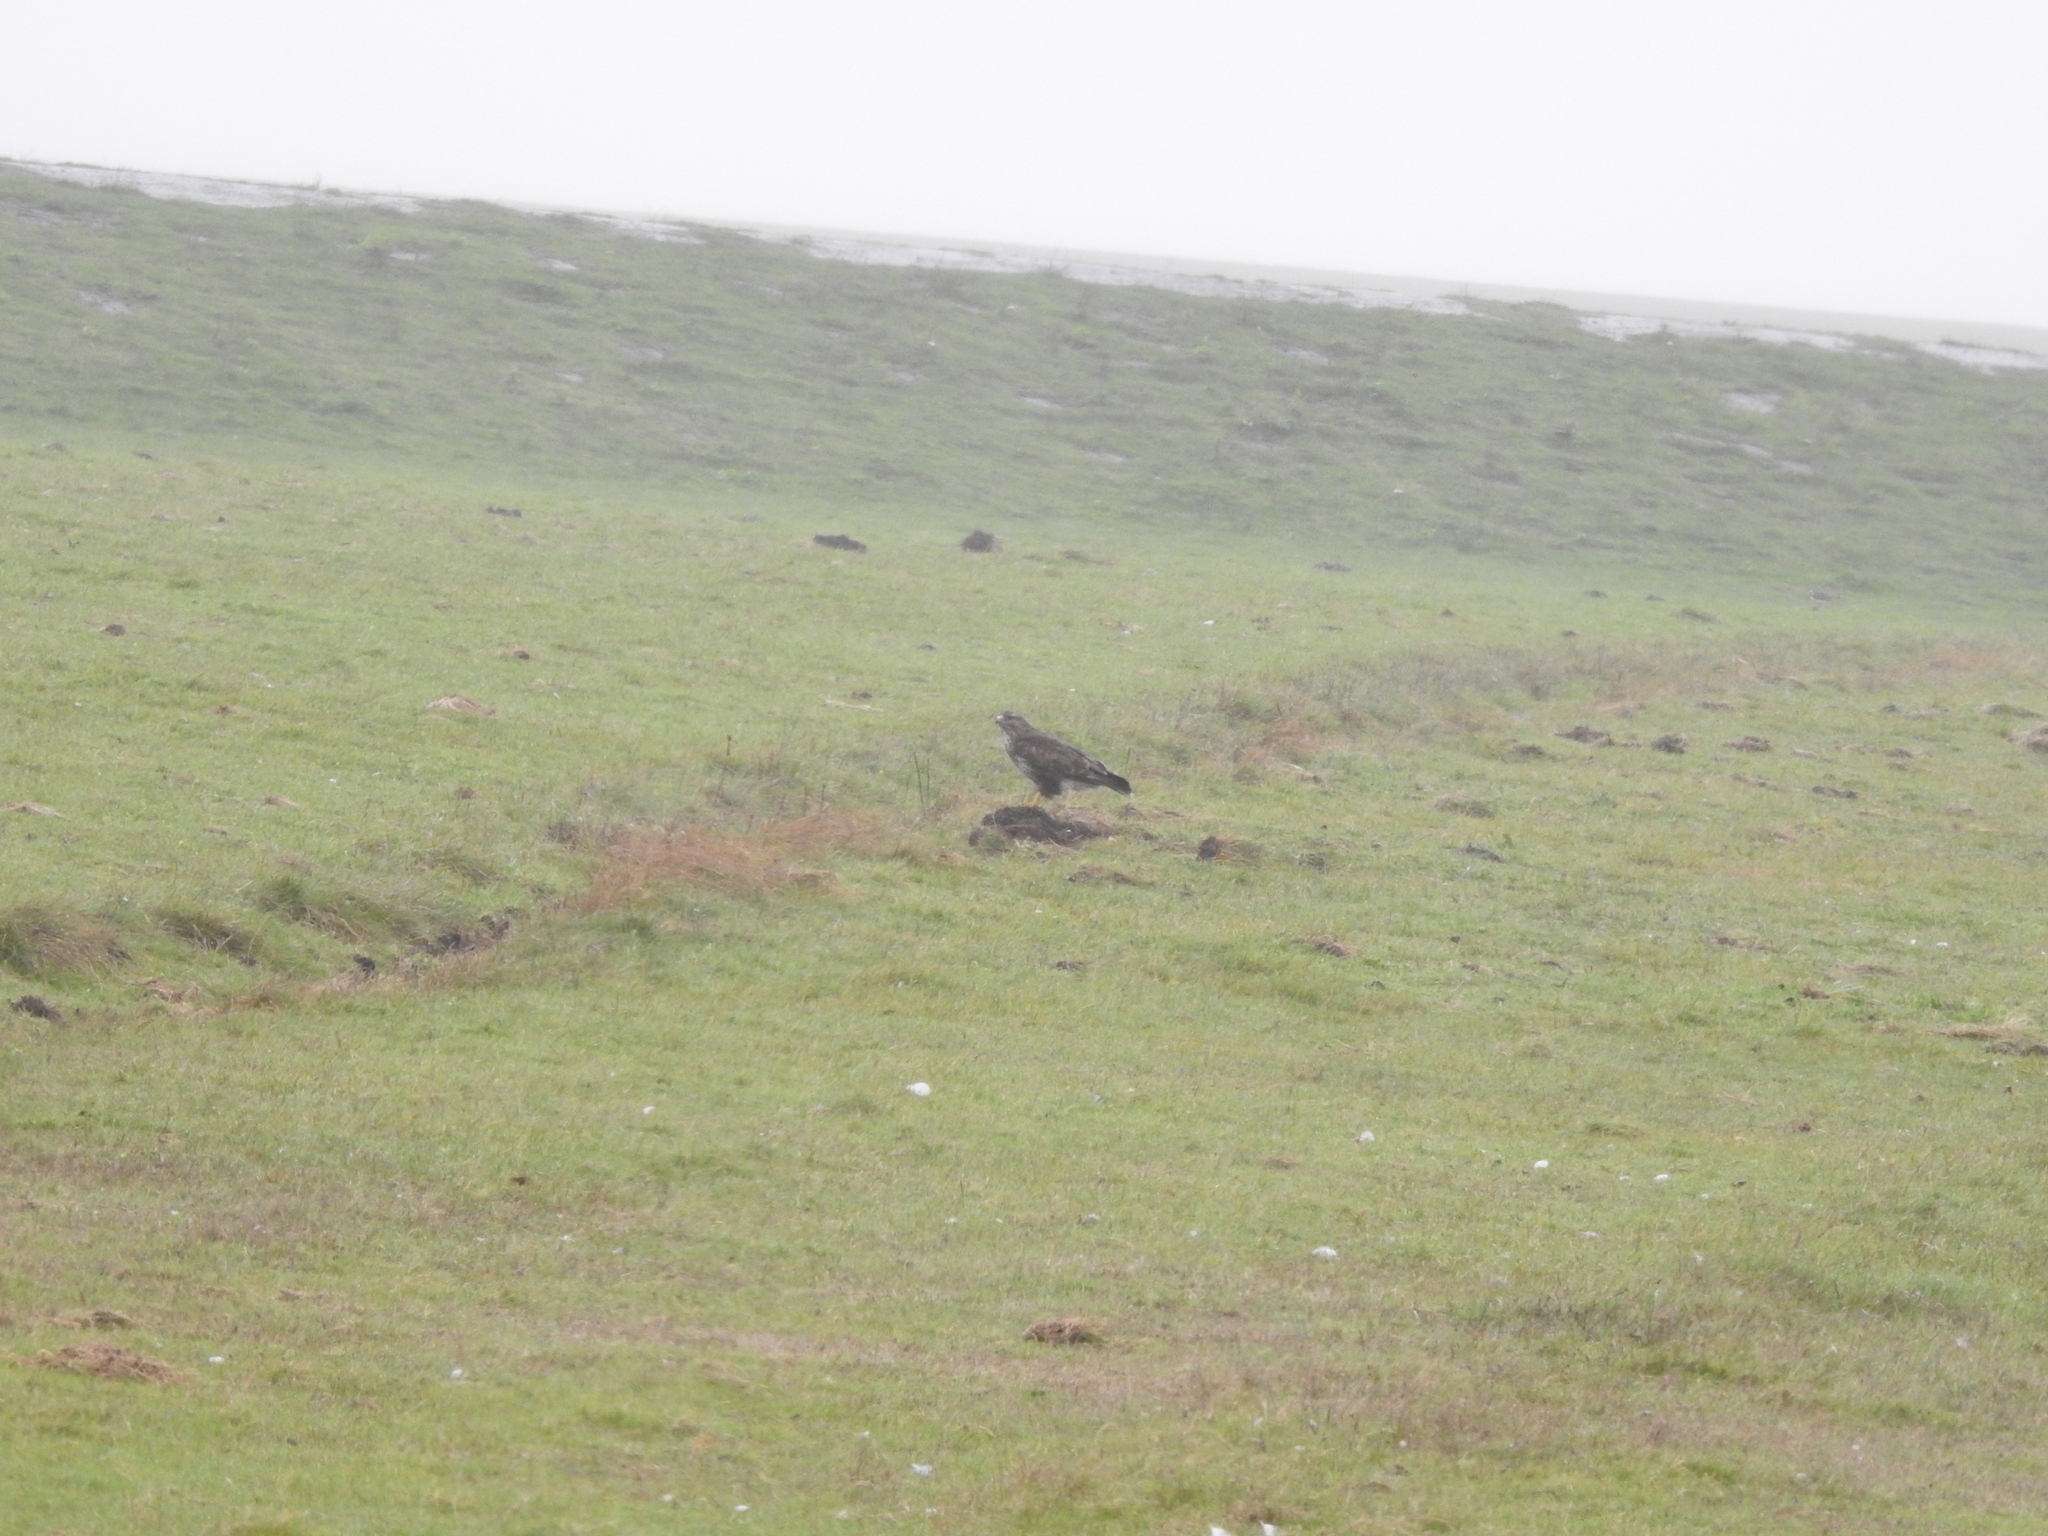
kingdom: Animalia
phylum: Chordata
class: Aves
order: Accipitriformes
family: Accipitridae
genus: Buteo
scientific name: Buteo buteo
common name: Common buzzard
